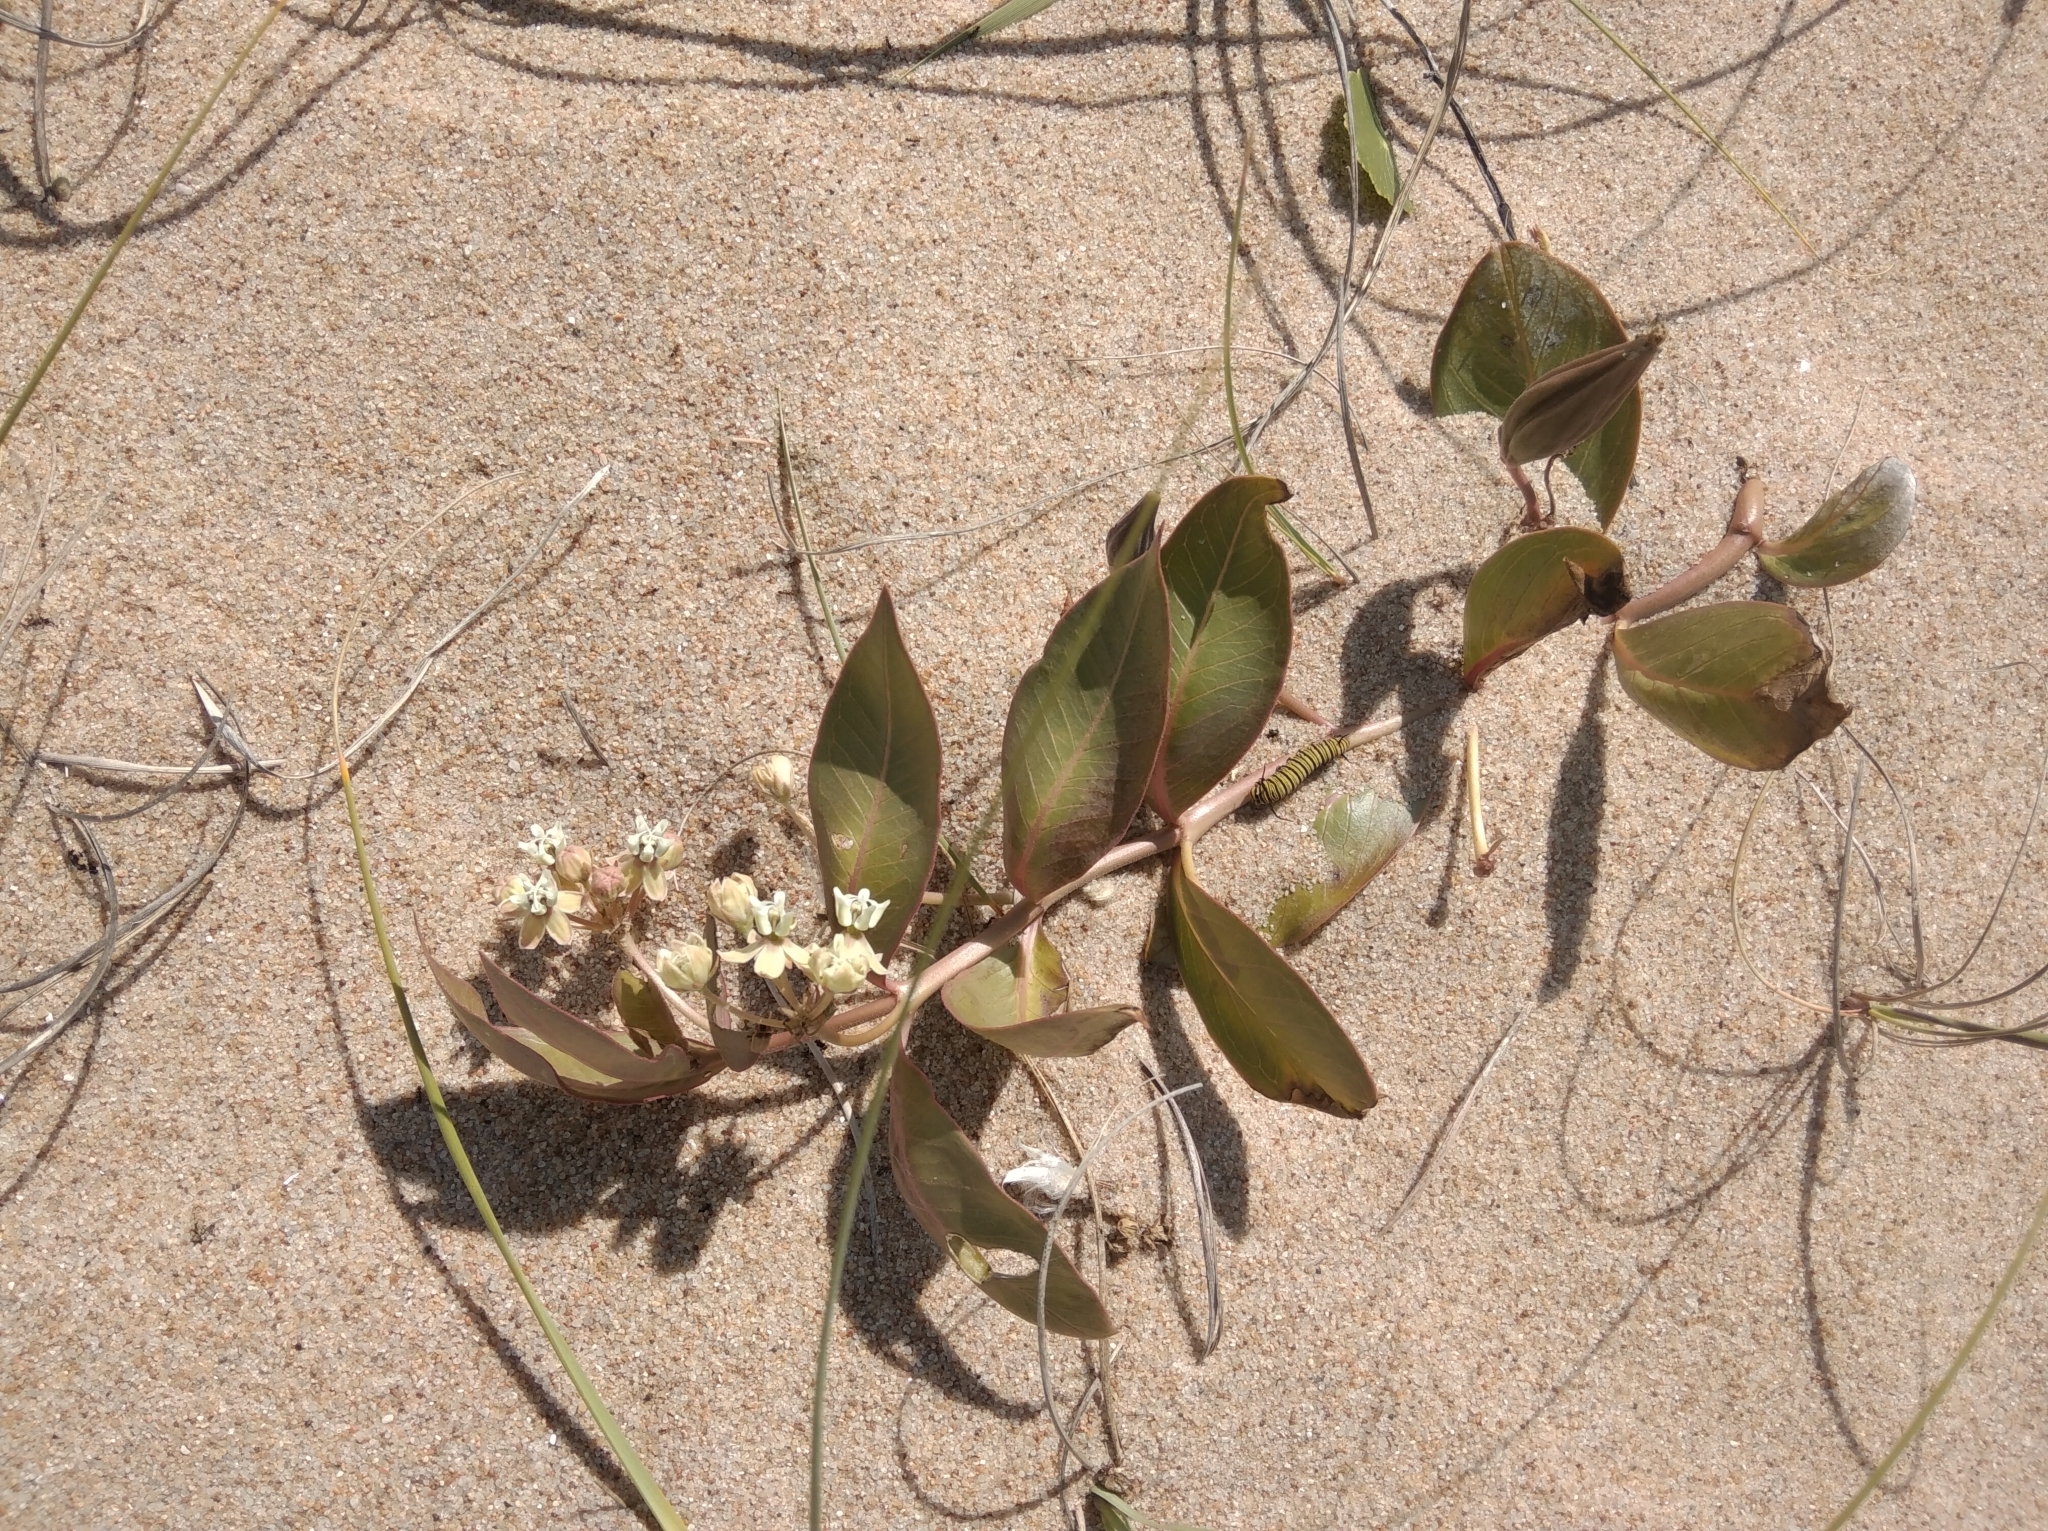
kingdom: Plantae
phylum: Tracheophyta
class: Magnoliopsida
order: Gentianales
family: Apocynaceae
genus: Asclepias
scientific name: Asclepias candida
